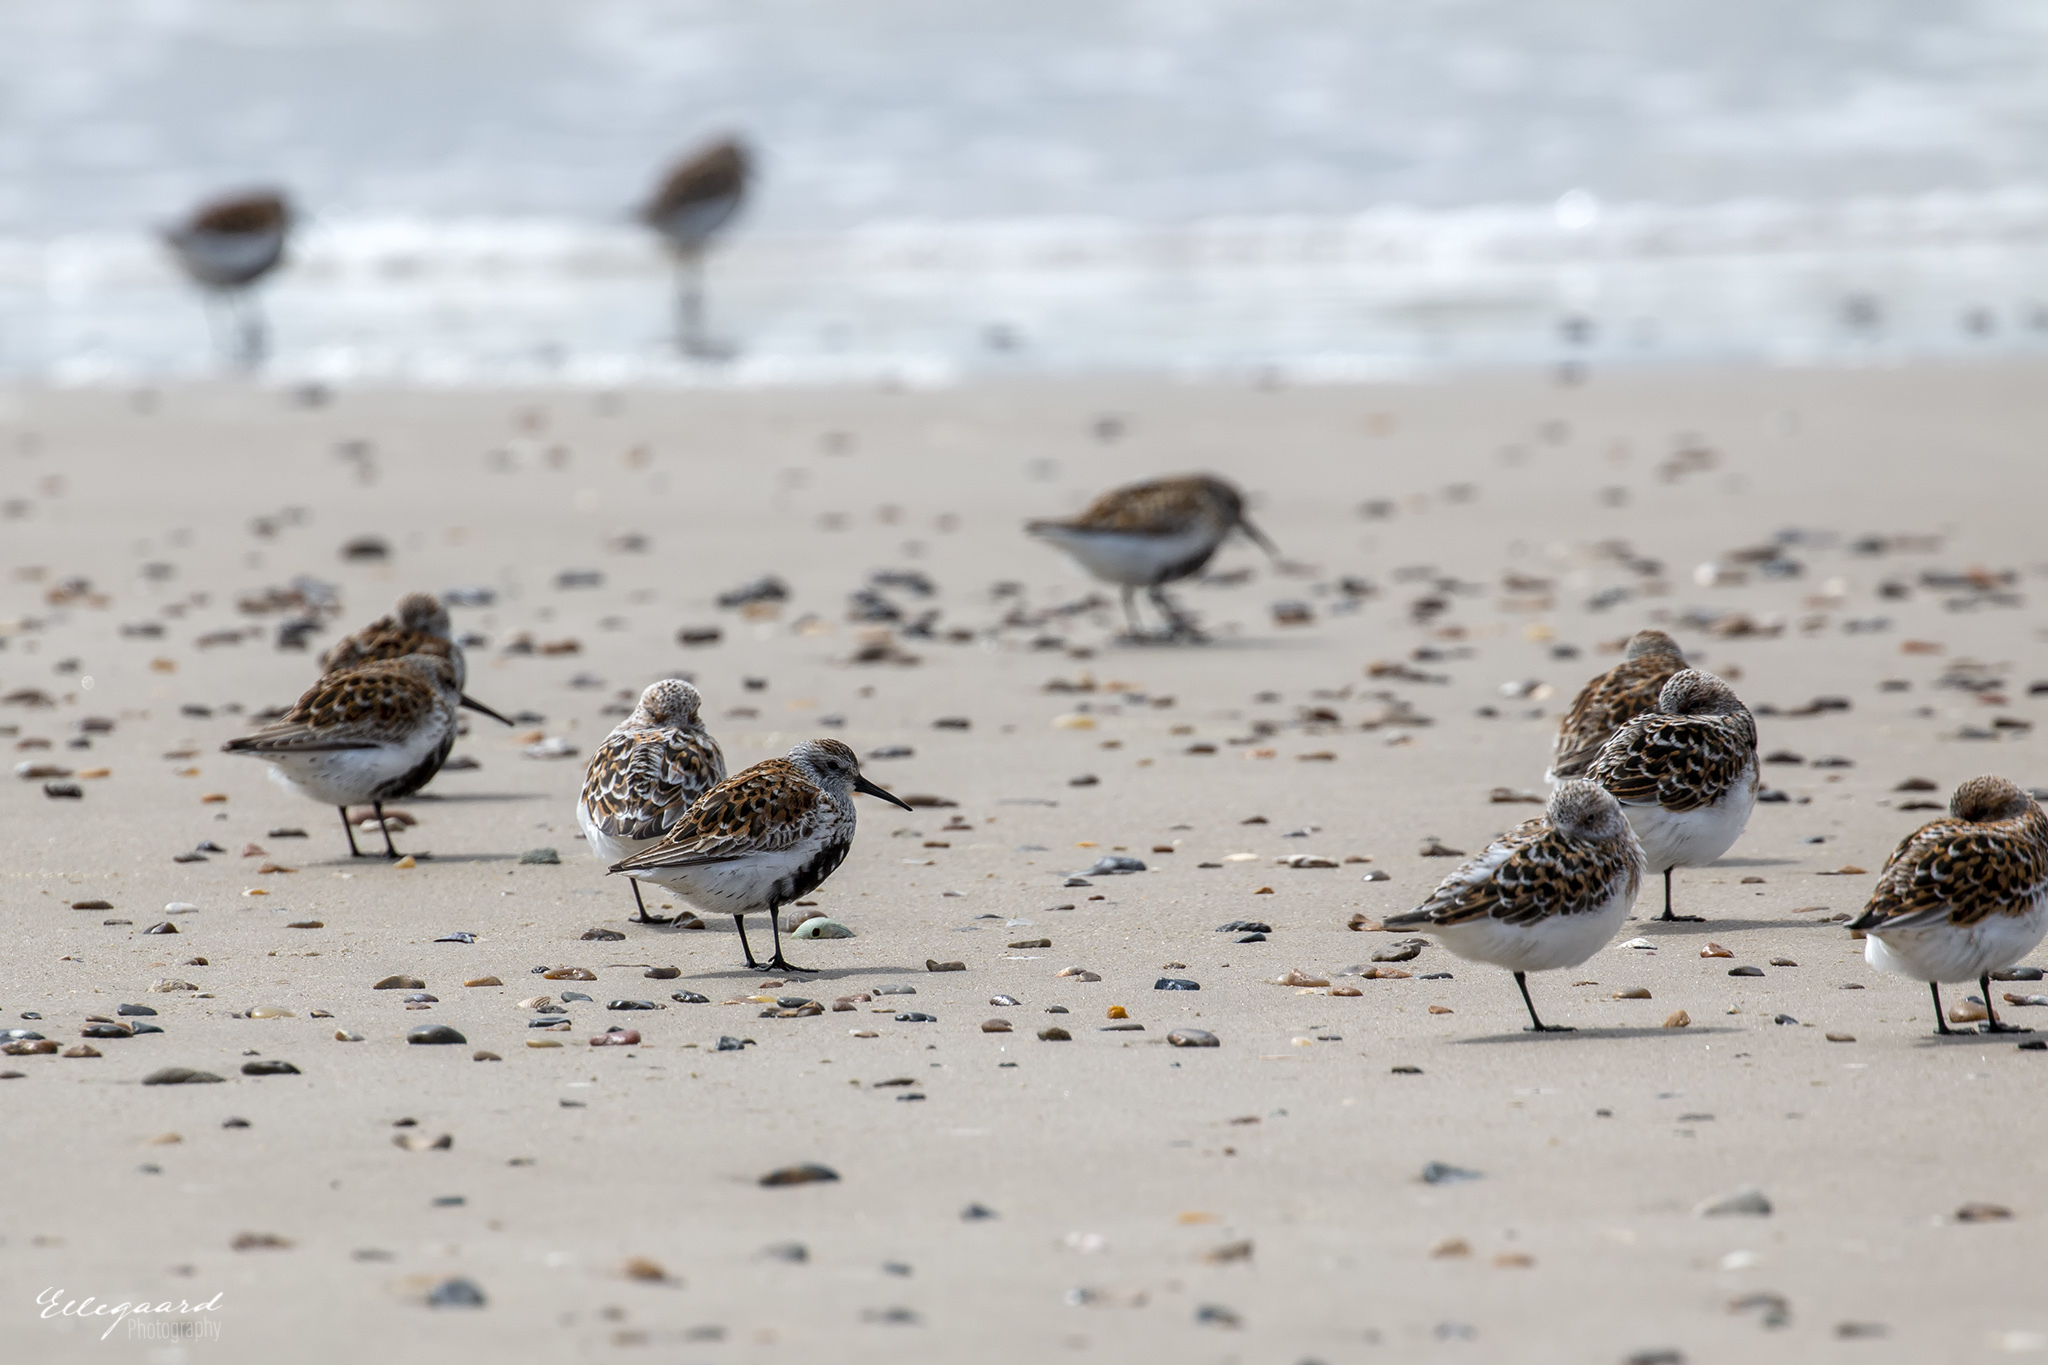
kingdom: Animalia
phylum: Chordata
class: Aves
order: Charadriiformes
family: Scolopacidae
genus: Calidris
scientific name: Calidris alpina
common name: Dunlin
